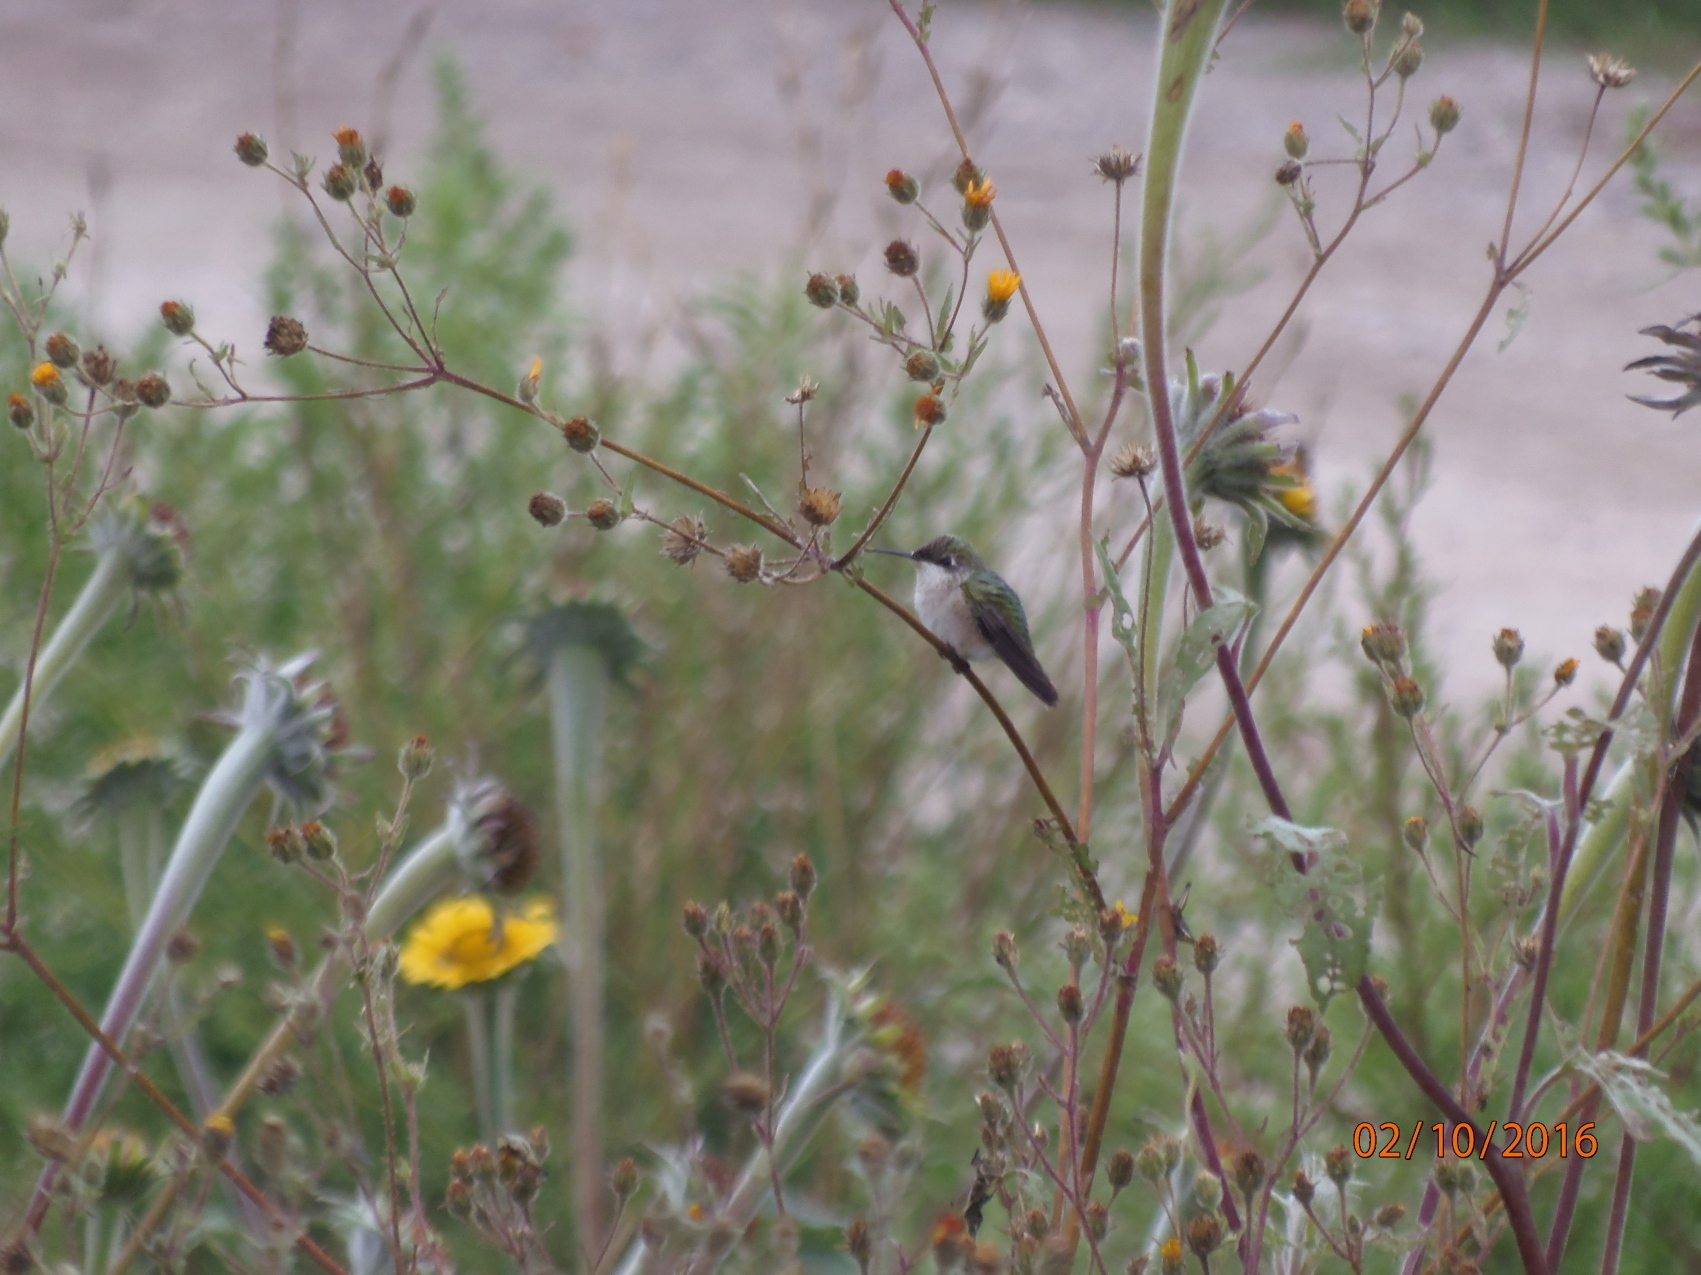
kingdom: Animalia
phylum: Chordata
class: Aves
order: Apodiformes
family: Trochilidae
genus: Archilochus
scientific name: Archilochus colubris
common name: Ruby-throated hummingbird
